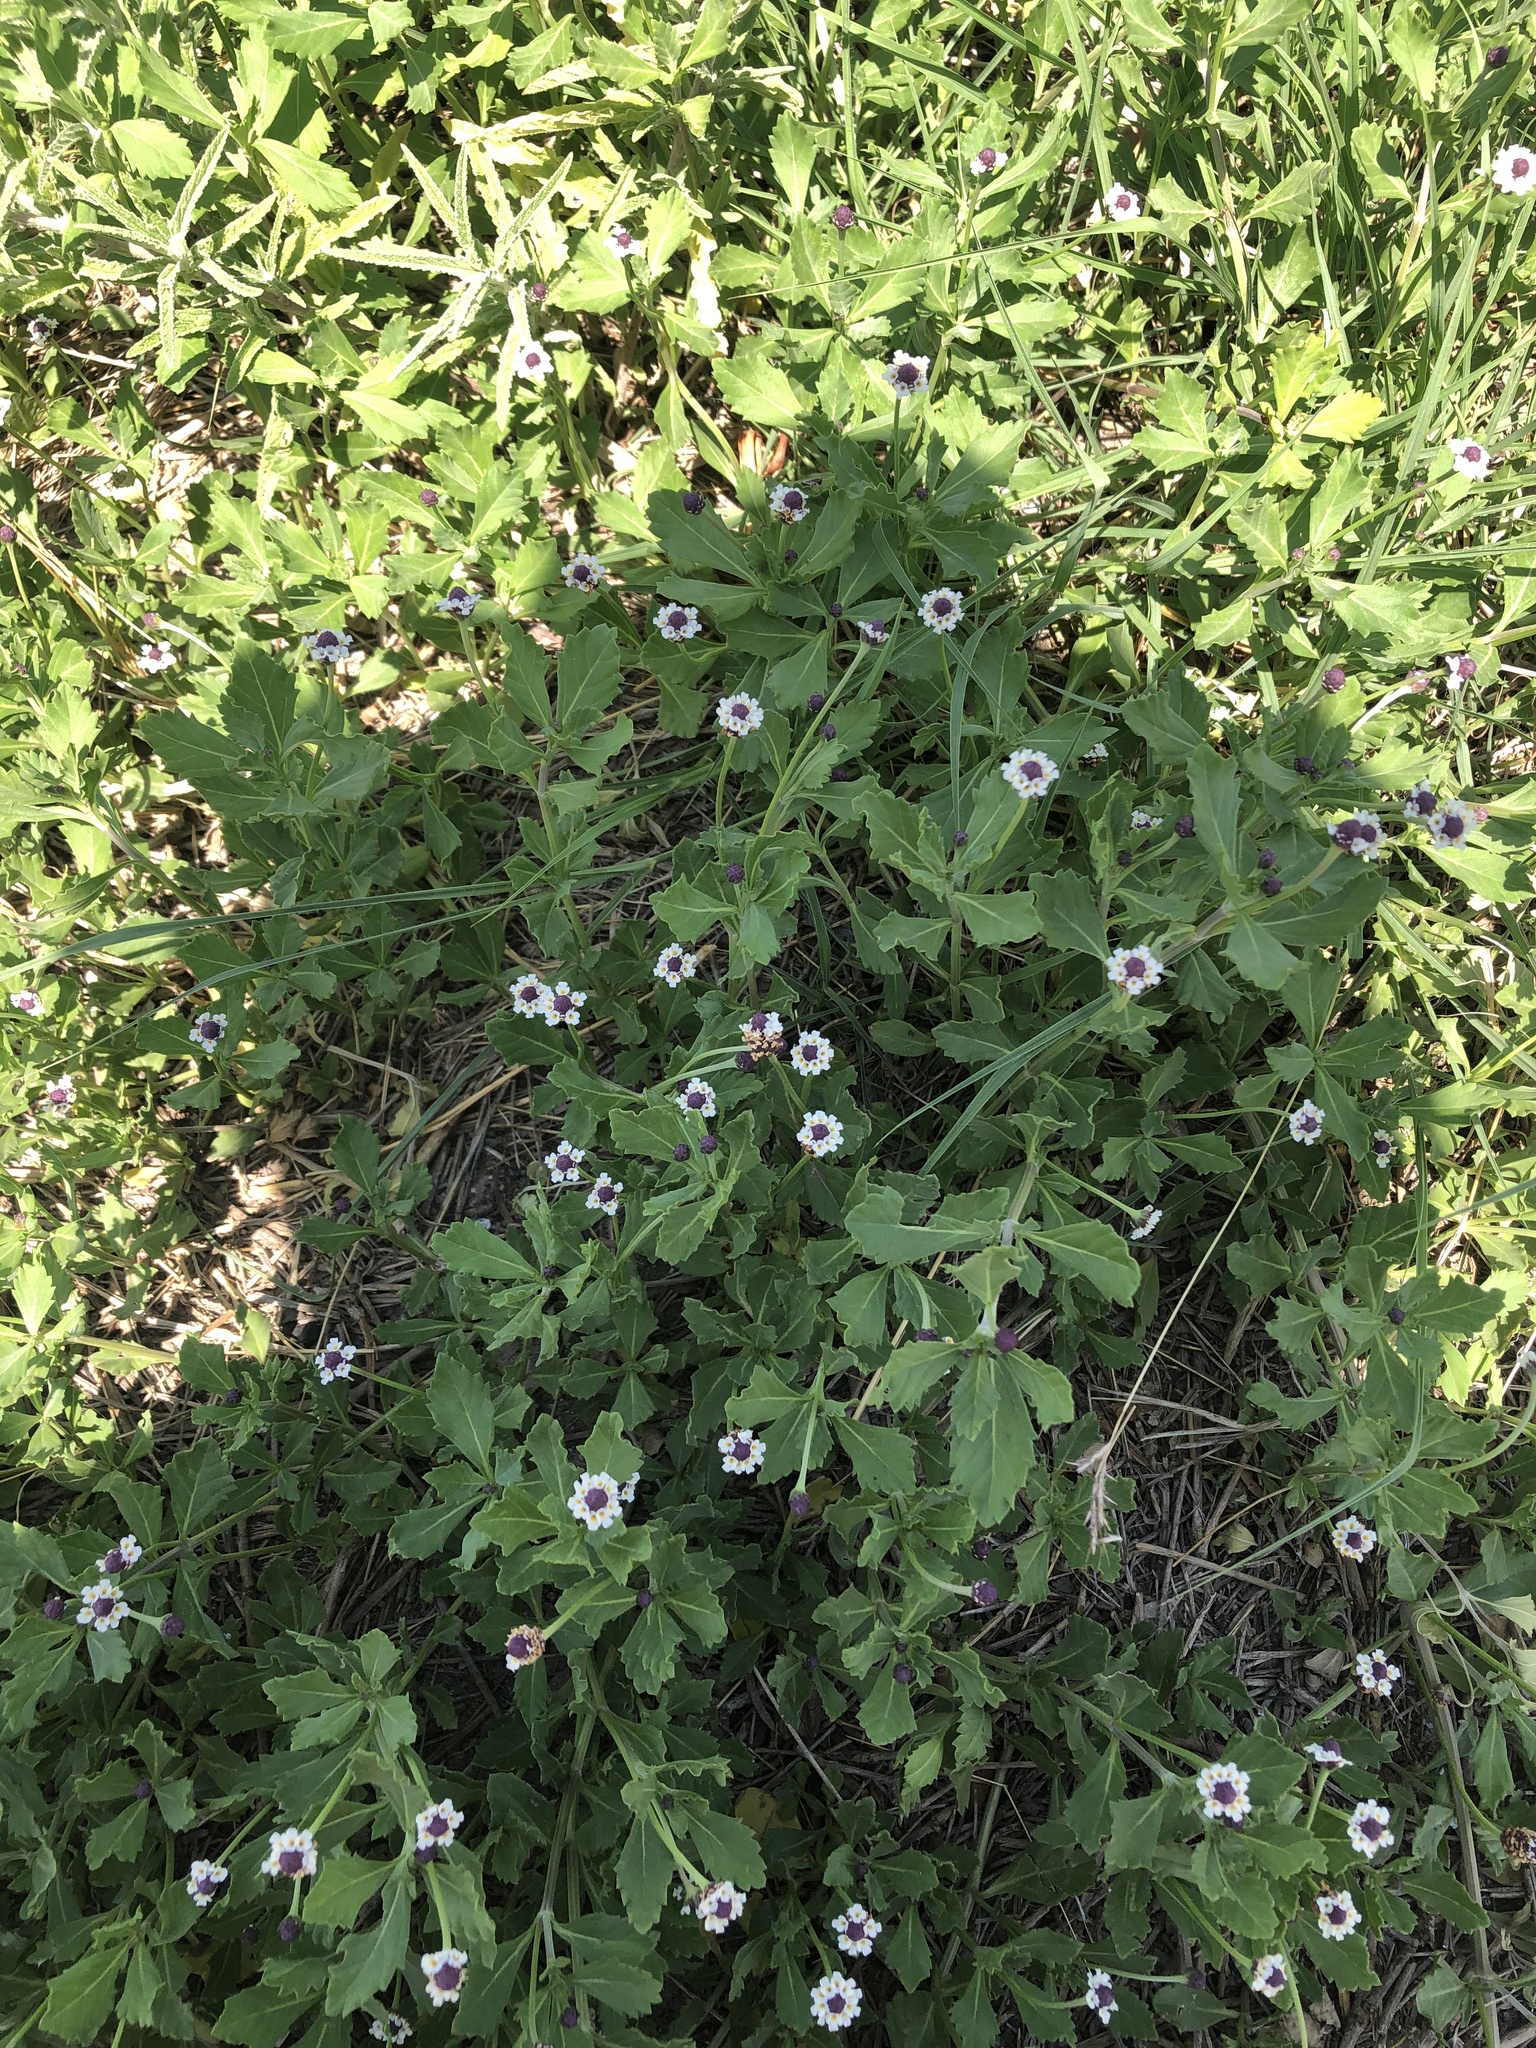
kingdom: Plantae
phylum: Tracheophyta
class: Magnoliopsida
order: Lamiales
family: Verbenaceae
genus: Phyla
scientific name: Phyla nodiflora
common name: Frogfruit
